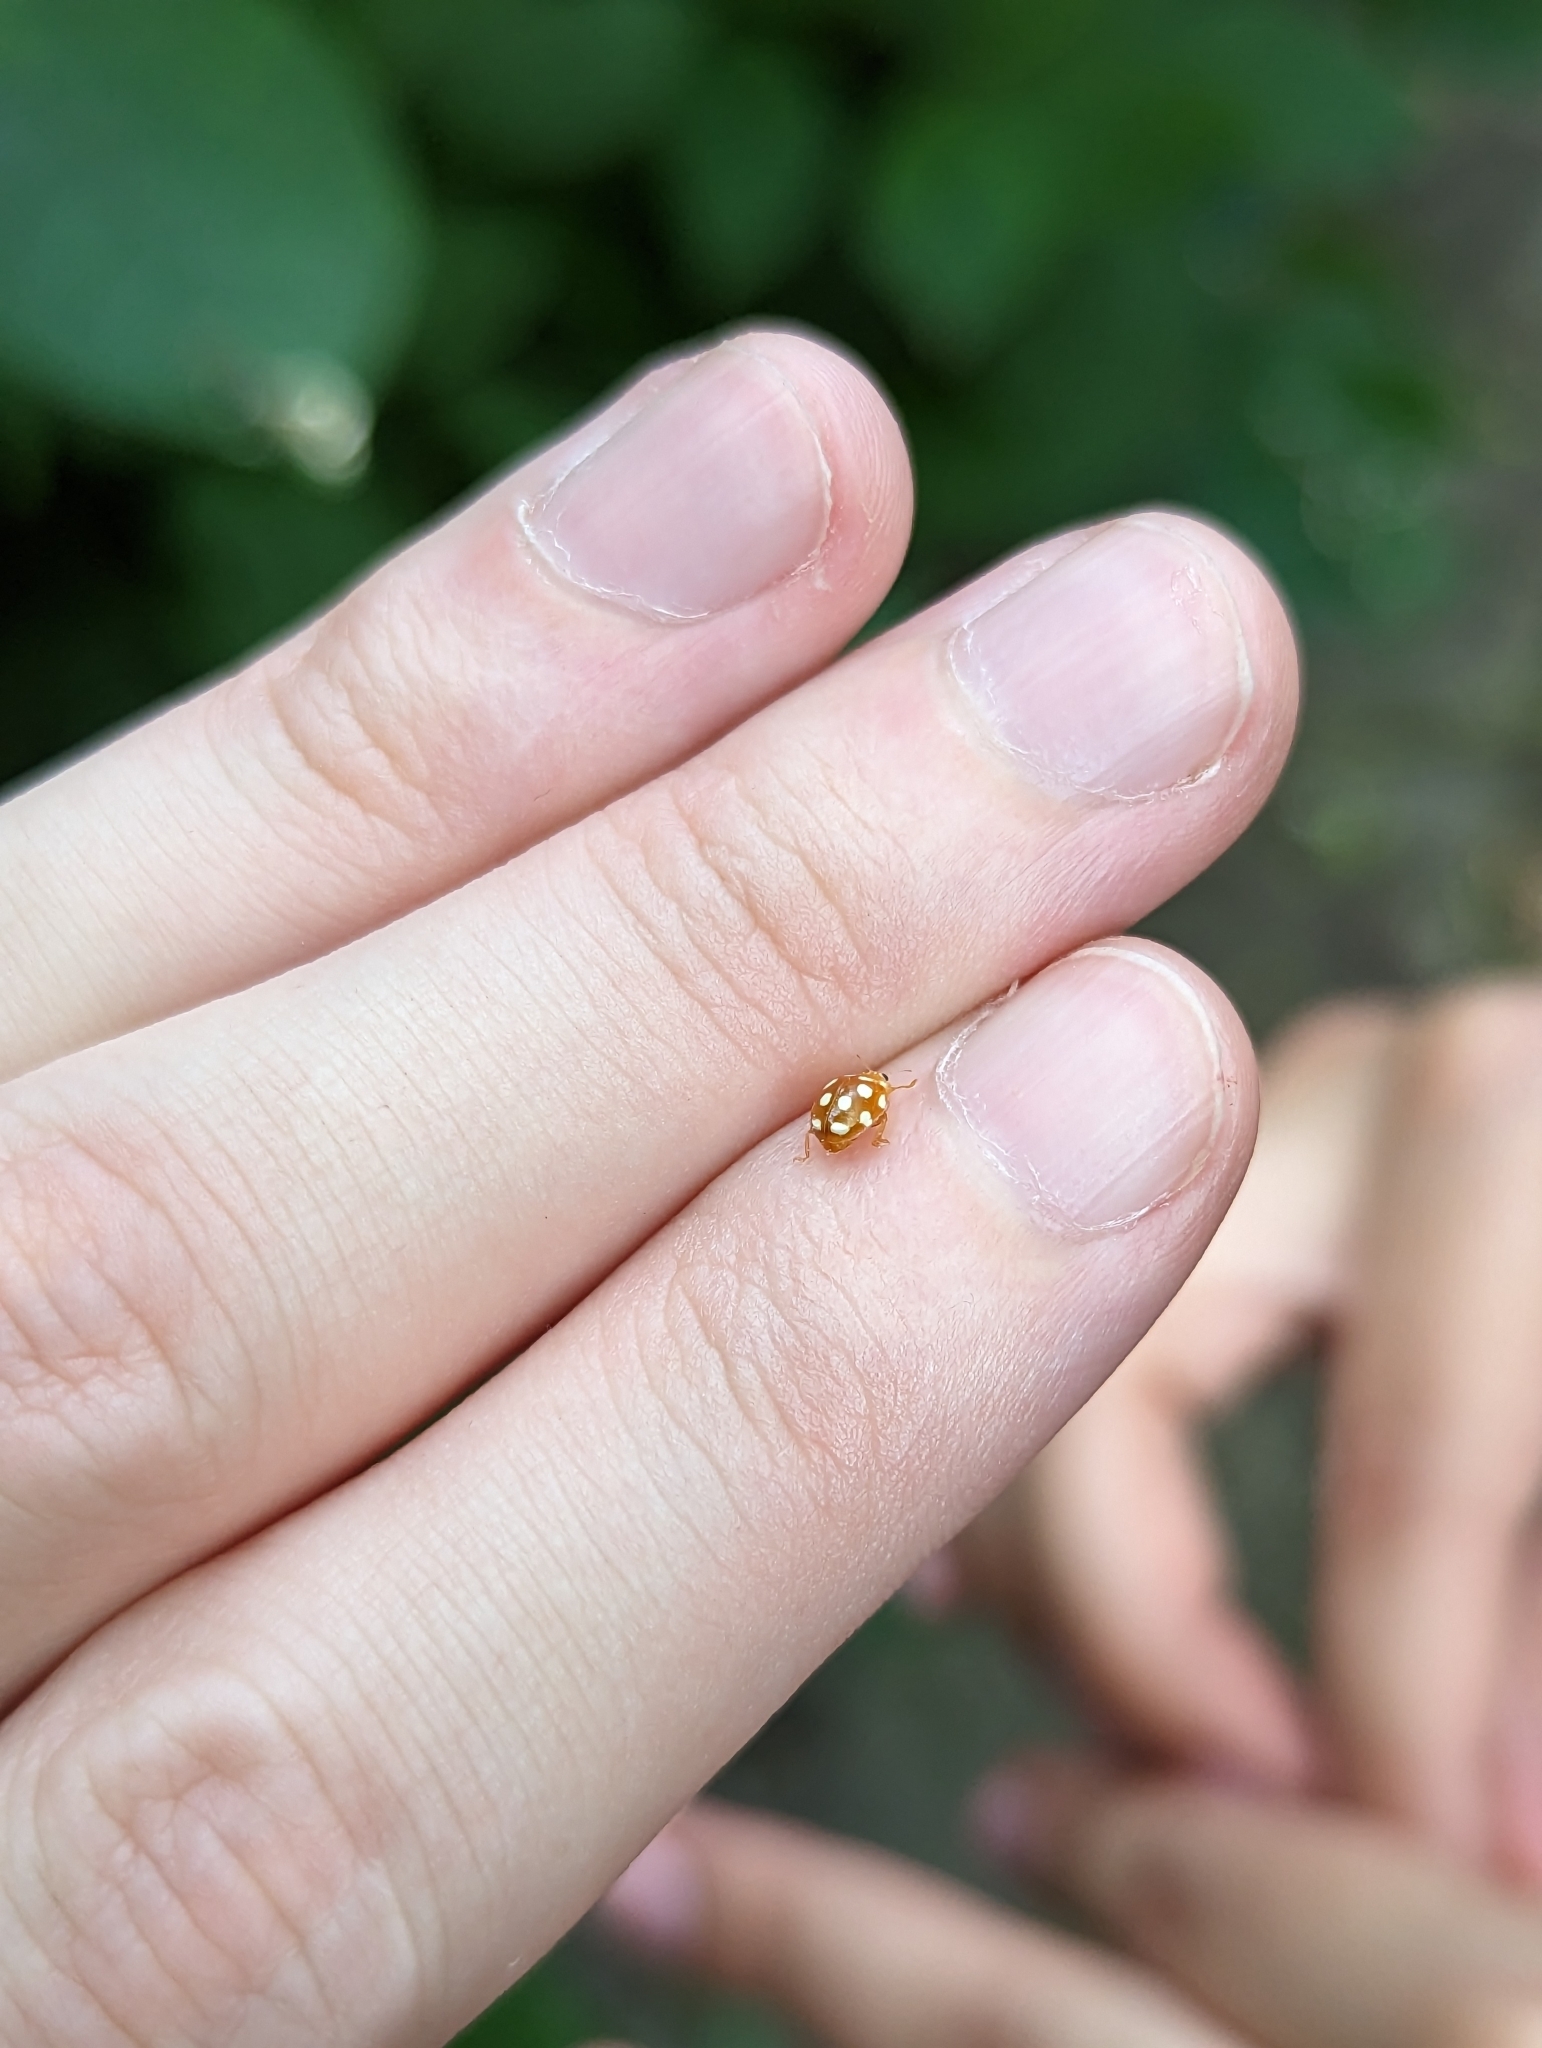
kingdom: Animalia
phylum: Arthropoda
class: Insecta
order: Coleoptera
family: Coccinellidae
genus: Vibidia
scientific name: Vibidia duodecimguttata
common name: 12-spot ladybird
